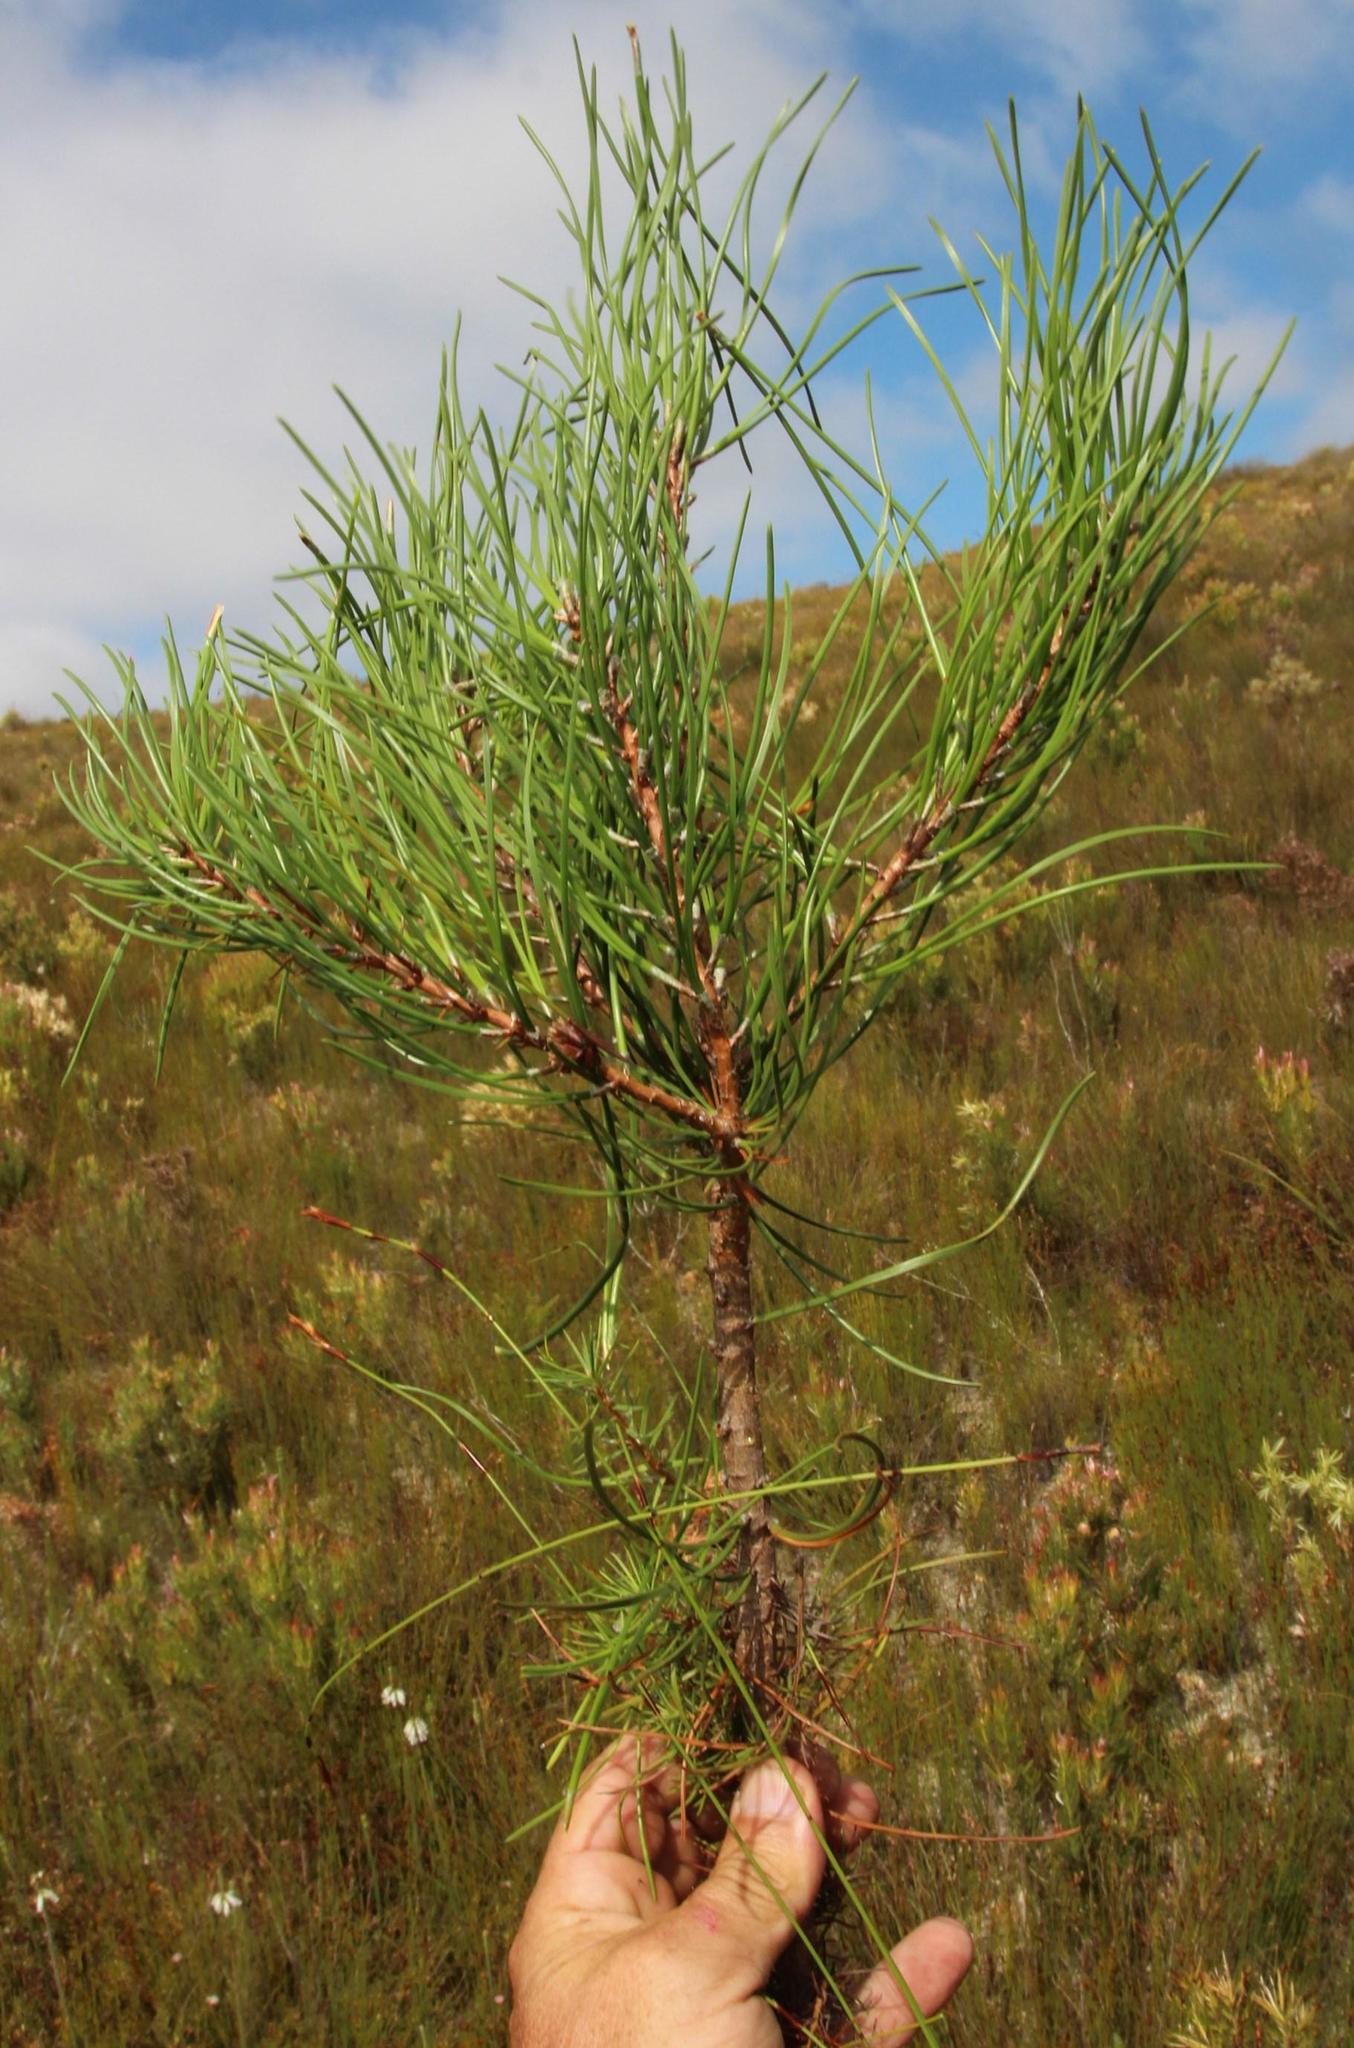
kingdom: Plantae
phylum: Tracheophyta
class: Pinopsida
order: Pinales
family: Pinaceae
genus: Pinus
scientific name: Pinus pinaster
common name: Maritime pine
